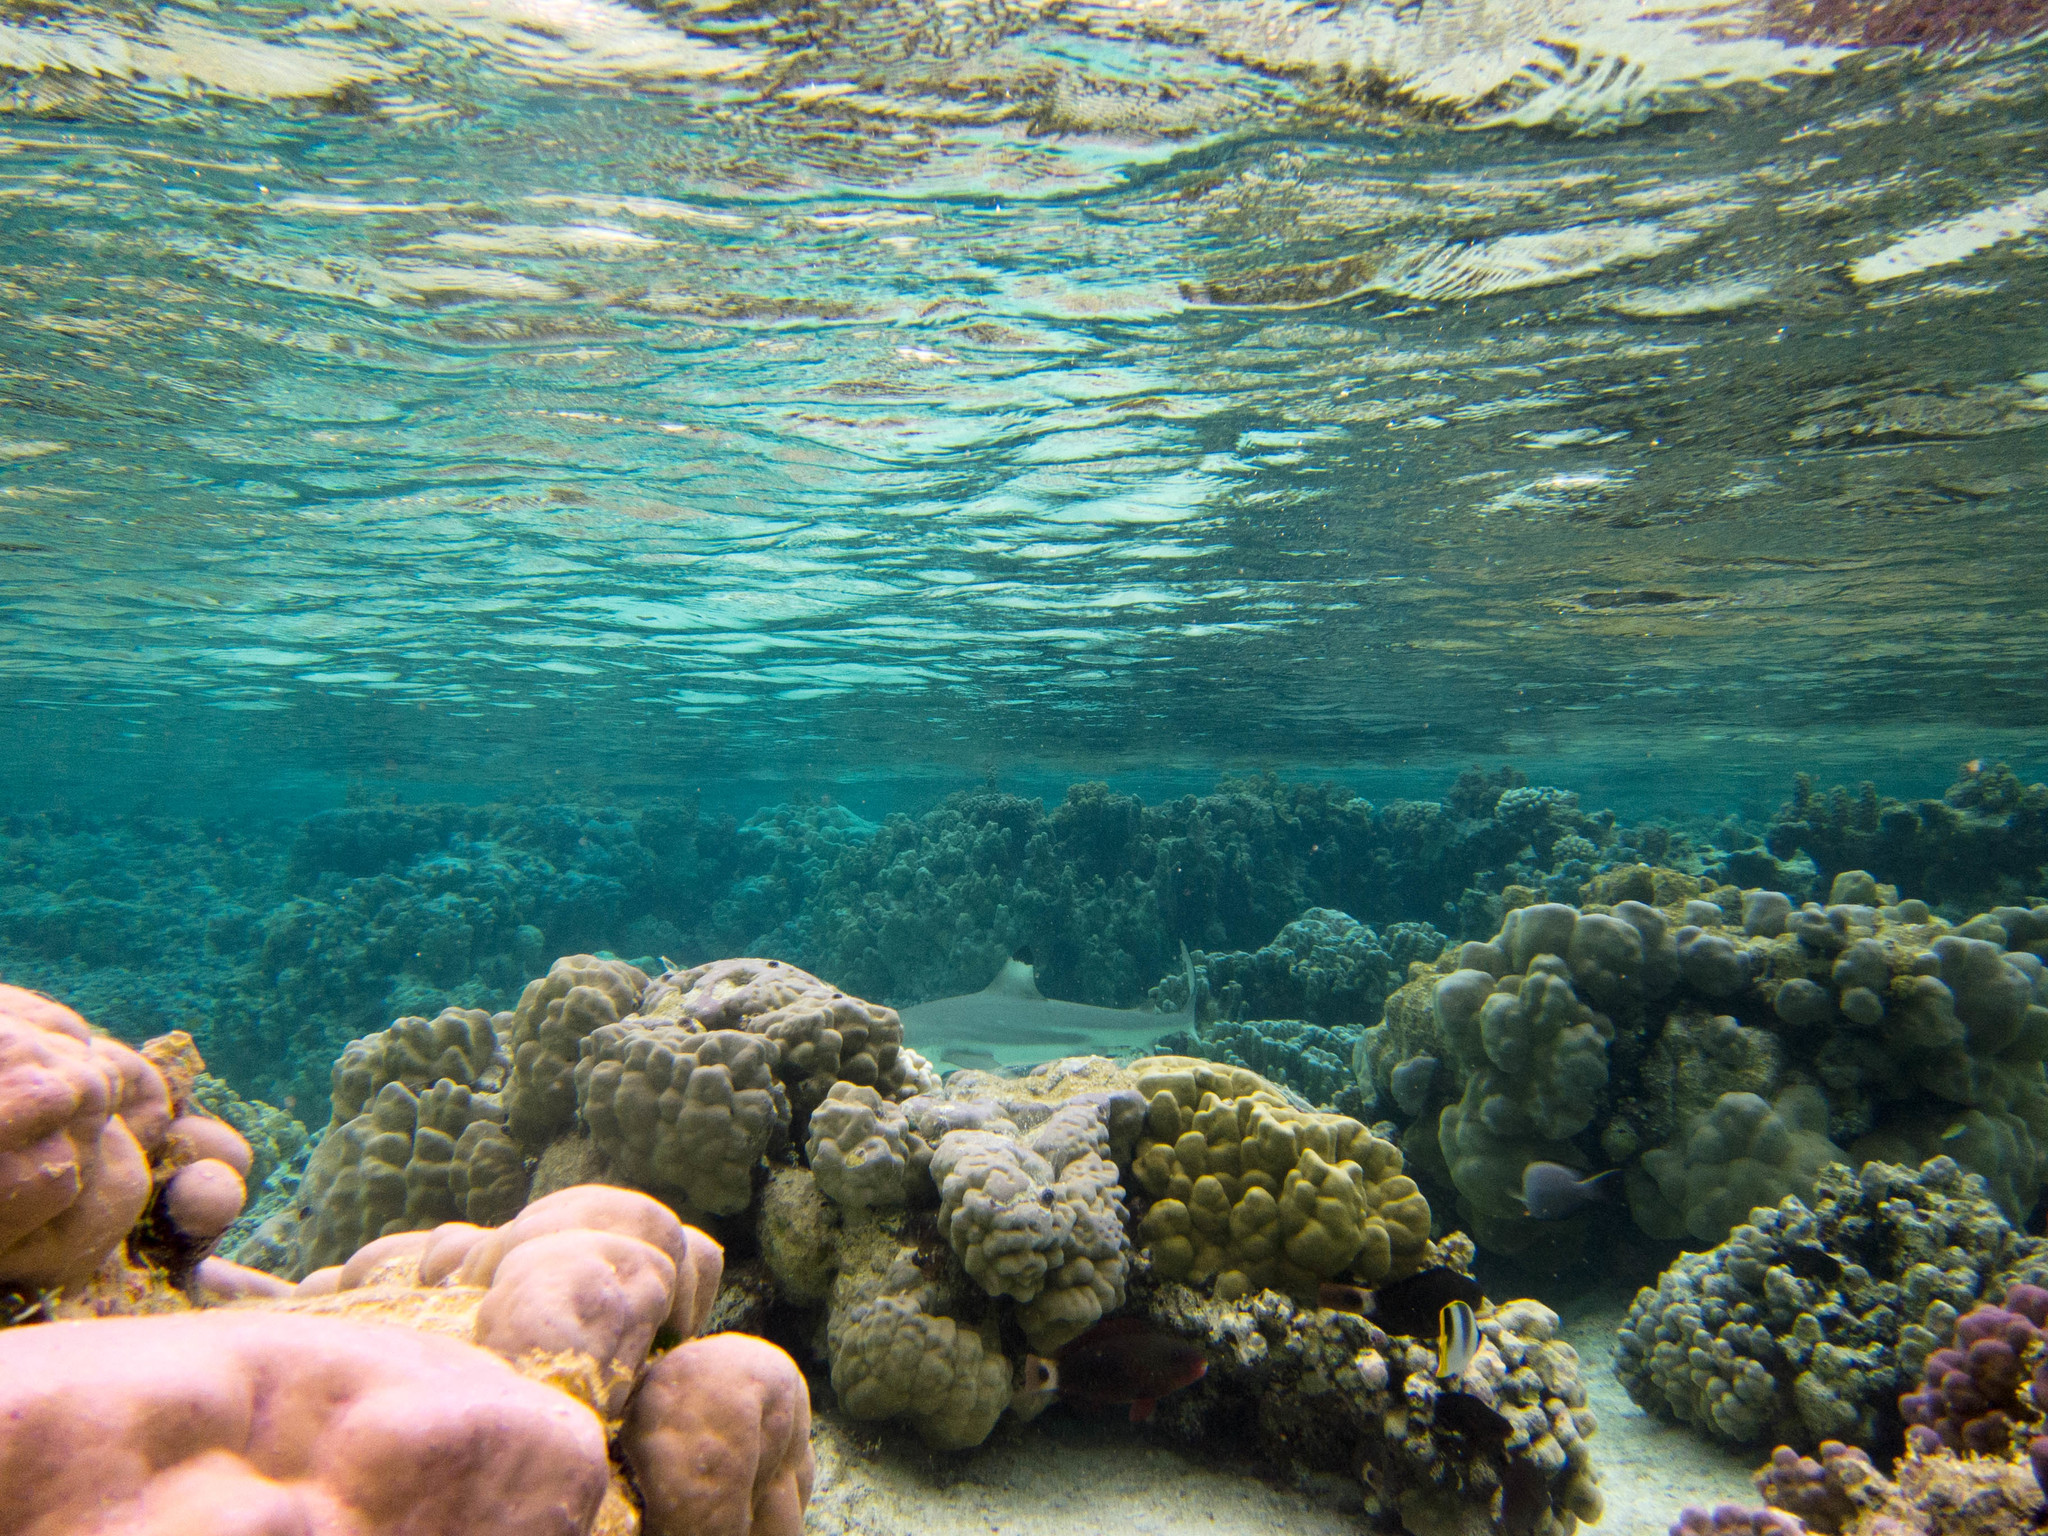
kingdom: Animalia
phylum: Chordata
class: Elasmobranchii
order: Carcharhiniformes
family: Carcharhinidae
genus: Carcharhinus
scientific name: Carcharhinus melanopterus
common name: Blacktip reef shark
